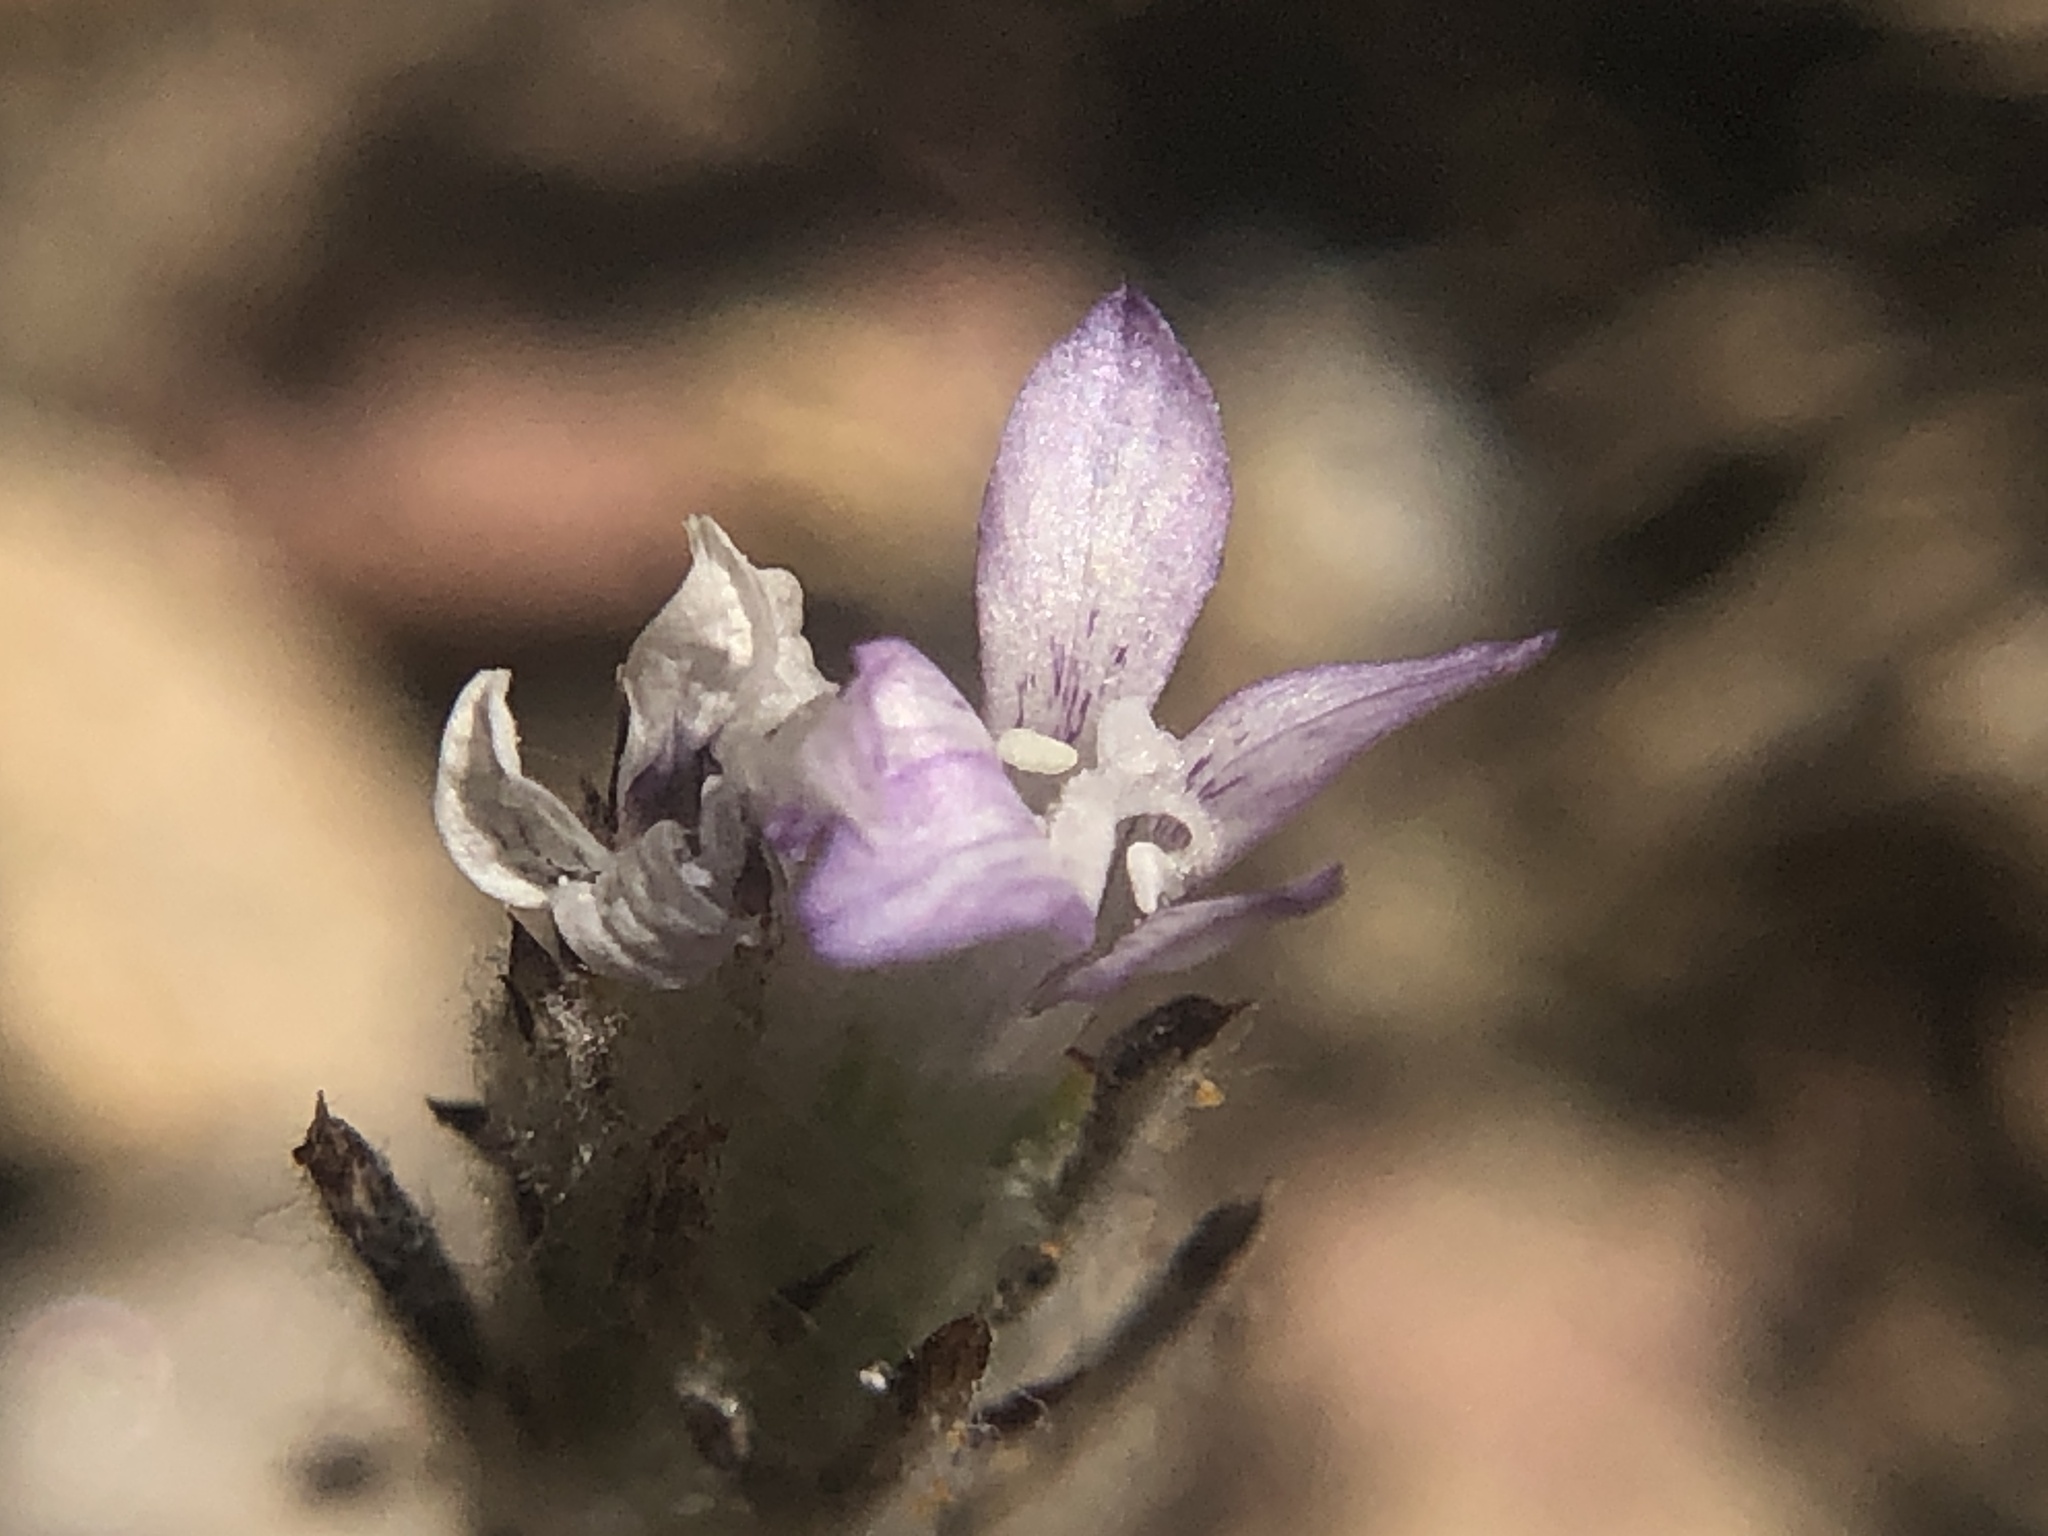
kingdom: Plantae
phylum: Tracheophyta
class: Magnoliopsida
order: Ericales
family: Polemoniaceae
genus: Eriastrum
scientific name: Eriastrum wilcoxii
